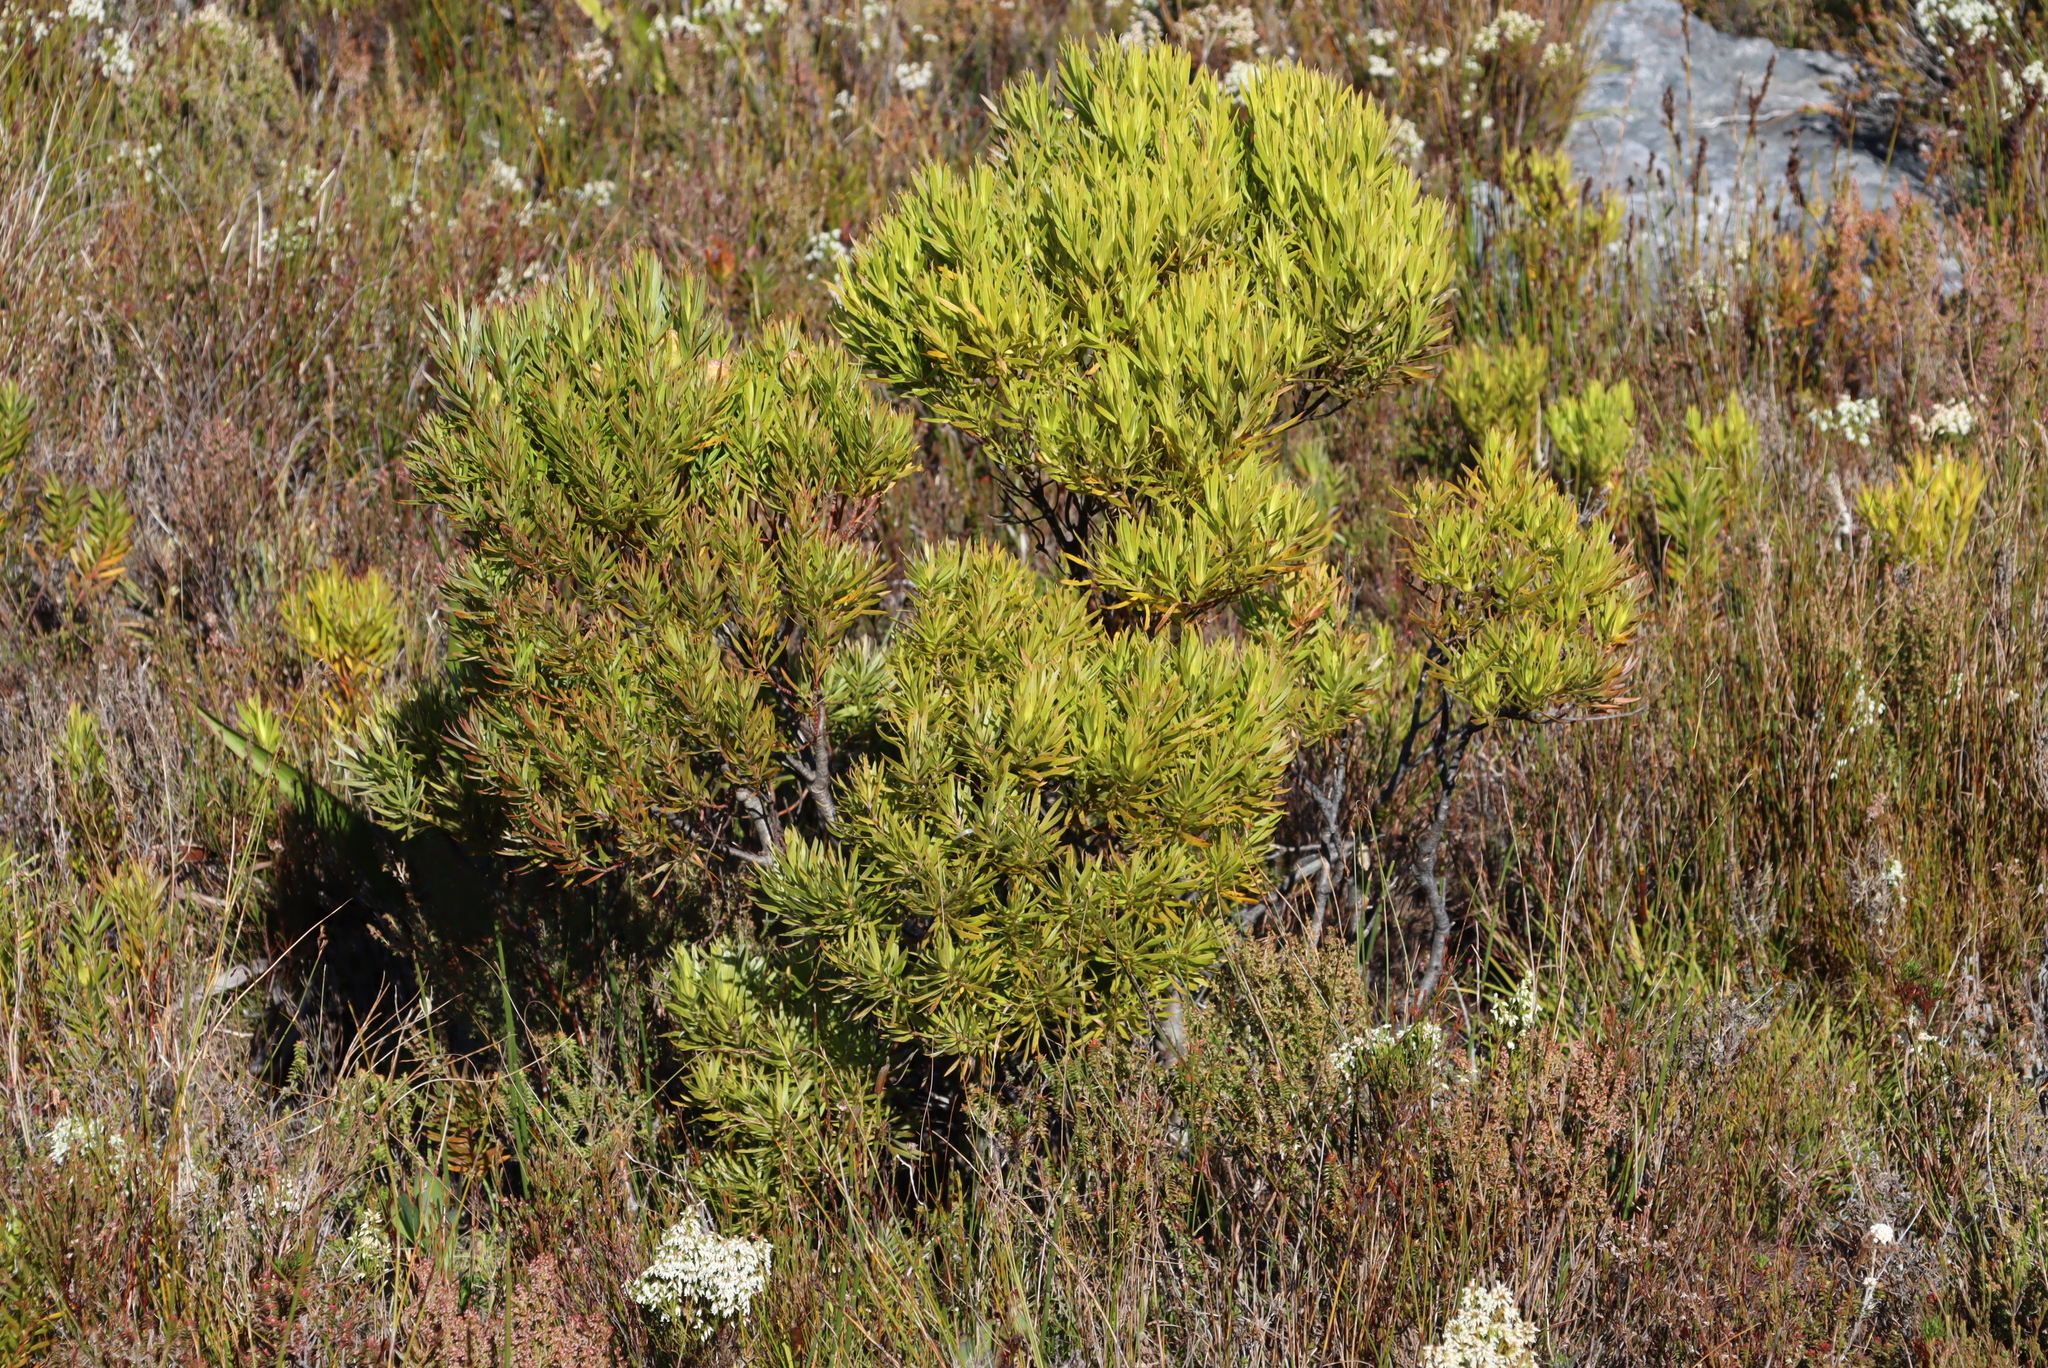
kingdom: Plantae
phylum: Tracheophyta
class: Magnoliopsida
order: Proteales
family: Proteaceae
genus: Leucadendron
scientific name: Leucadendron xanthoconus
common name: Sickle-leaf conebush
